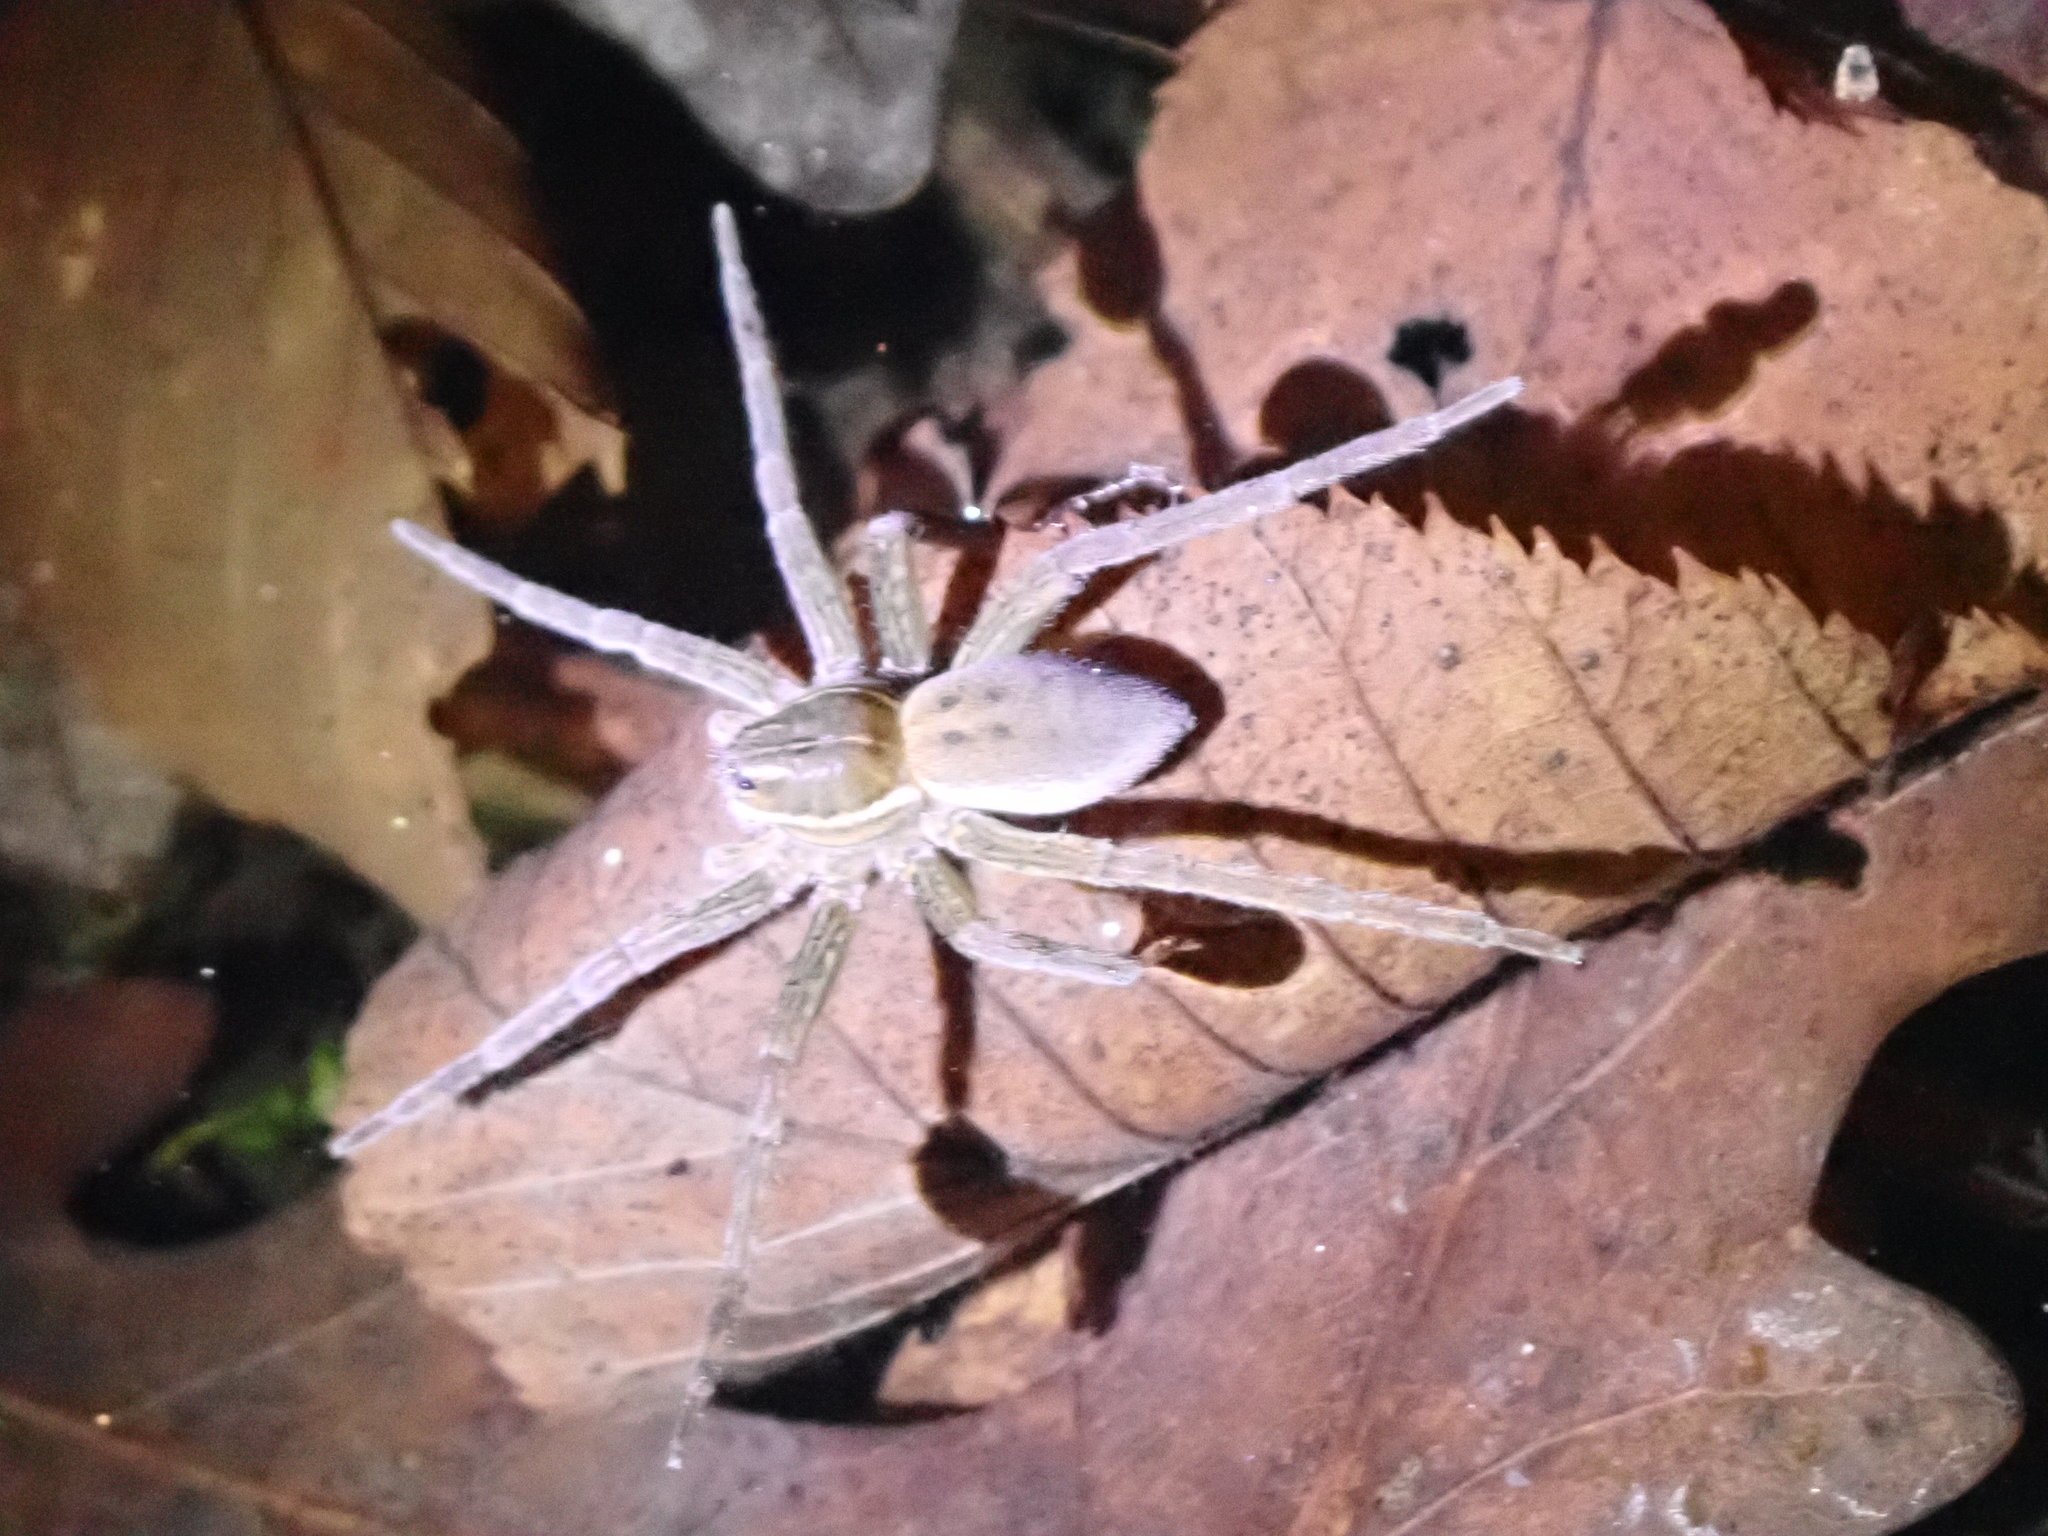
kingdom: Animalia
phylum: Arthropoda
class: Arachnida
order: Araneae
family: Pisauridae
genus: Dolomedes
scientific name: Dolomedes triton
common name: Six-spotted fishing spider
